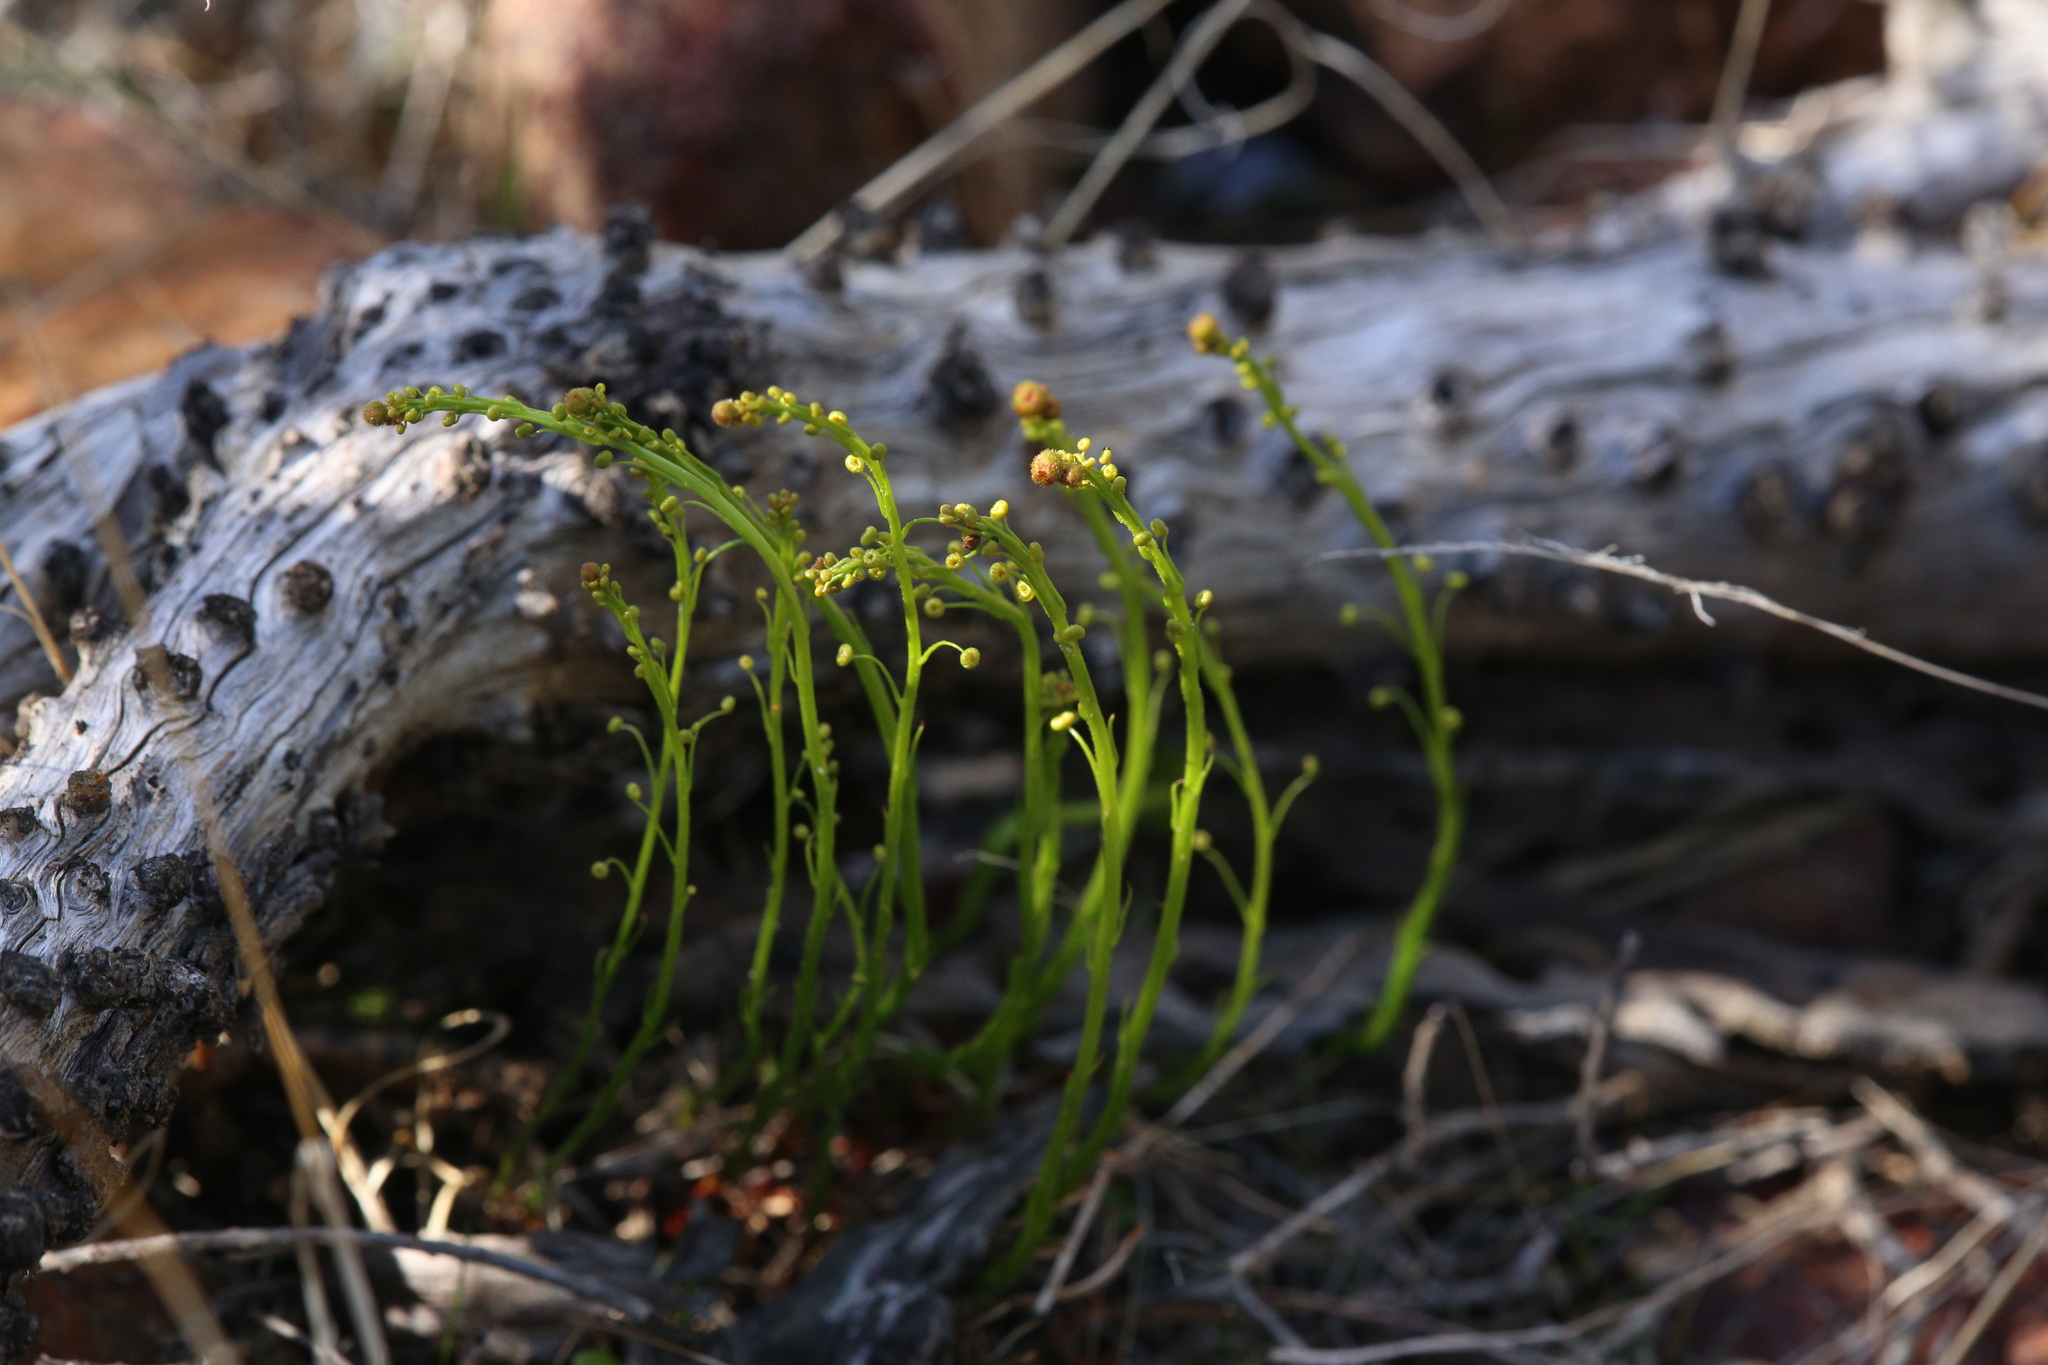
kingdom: Plantae
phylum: Tracheophyta
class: Magnoliopsida
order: Caryophyllales
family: Droseraceae
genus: Drosera
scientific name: Drosera marchantii
